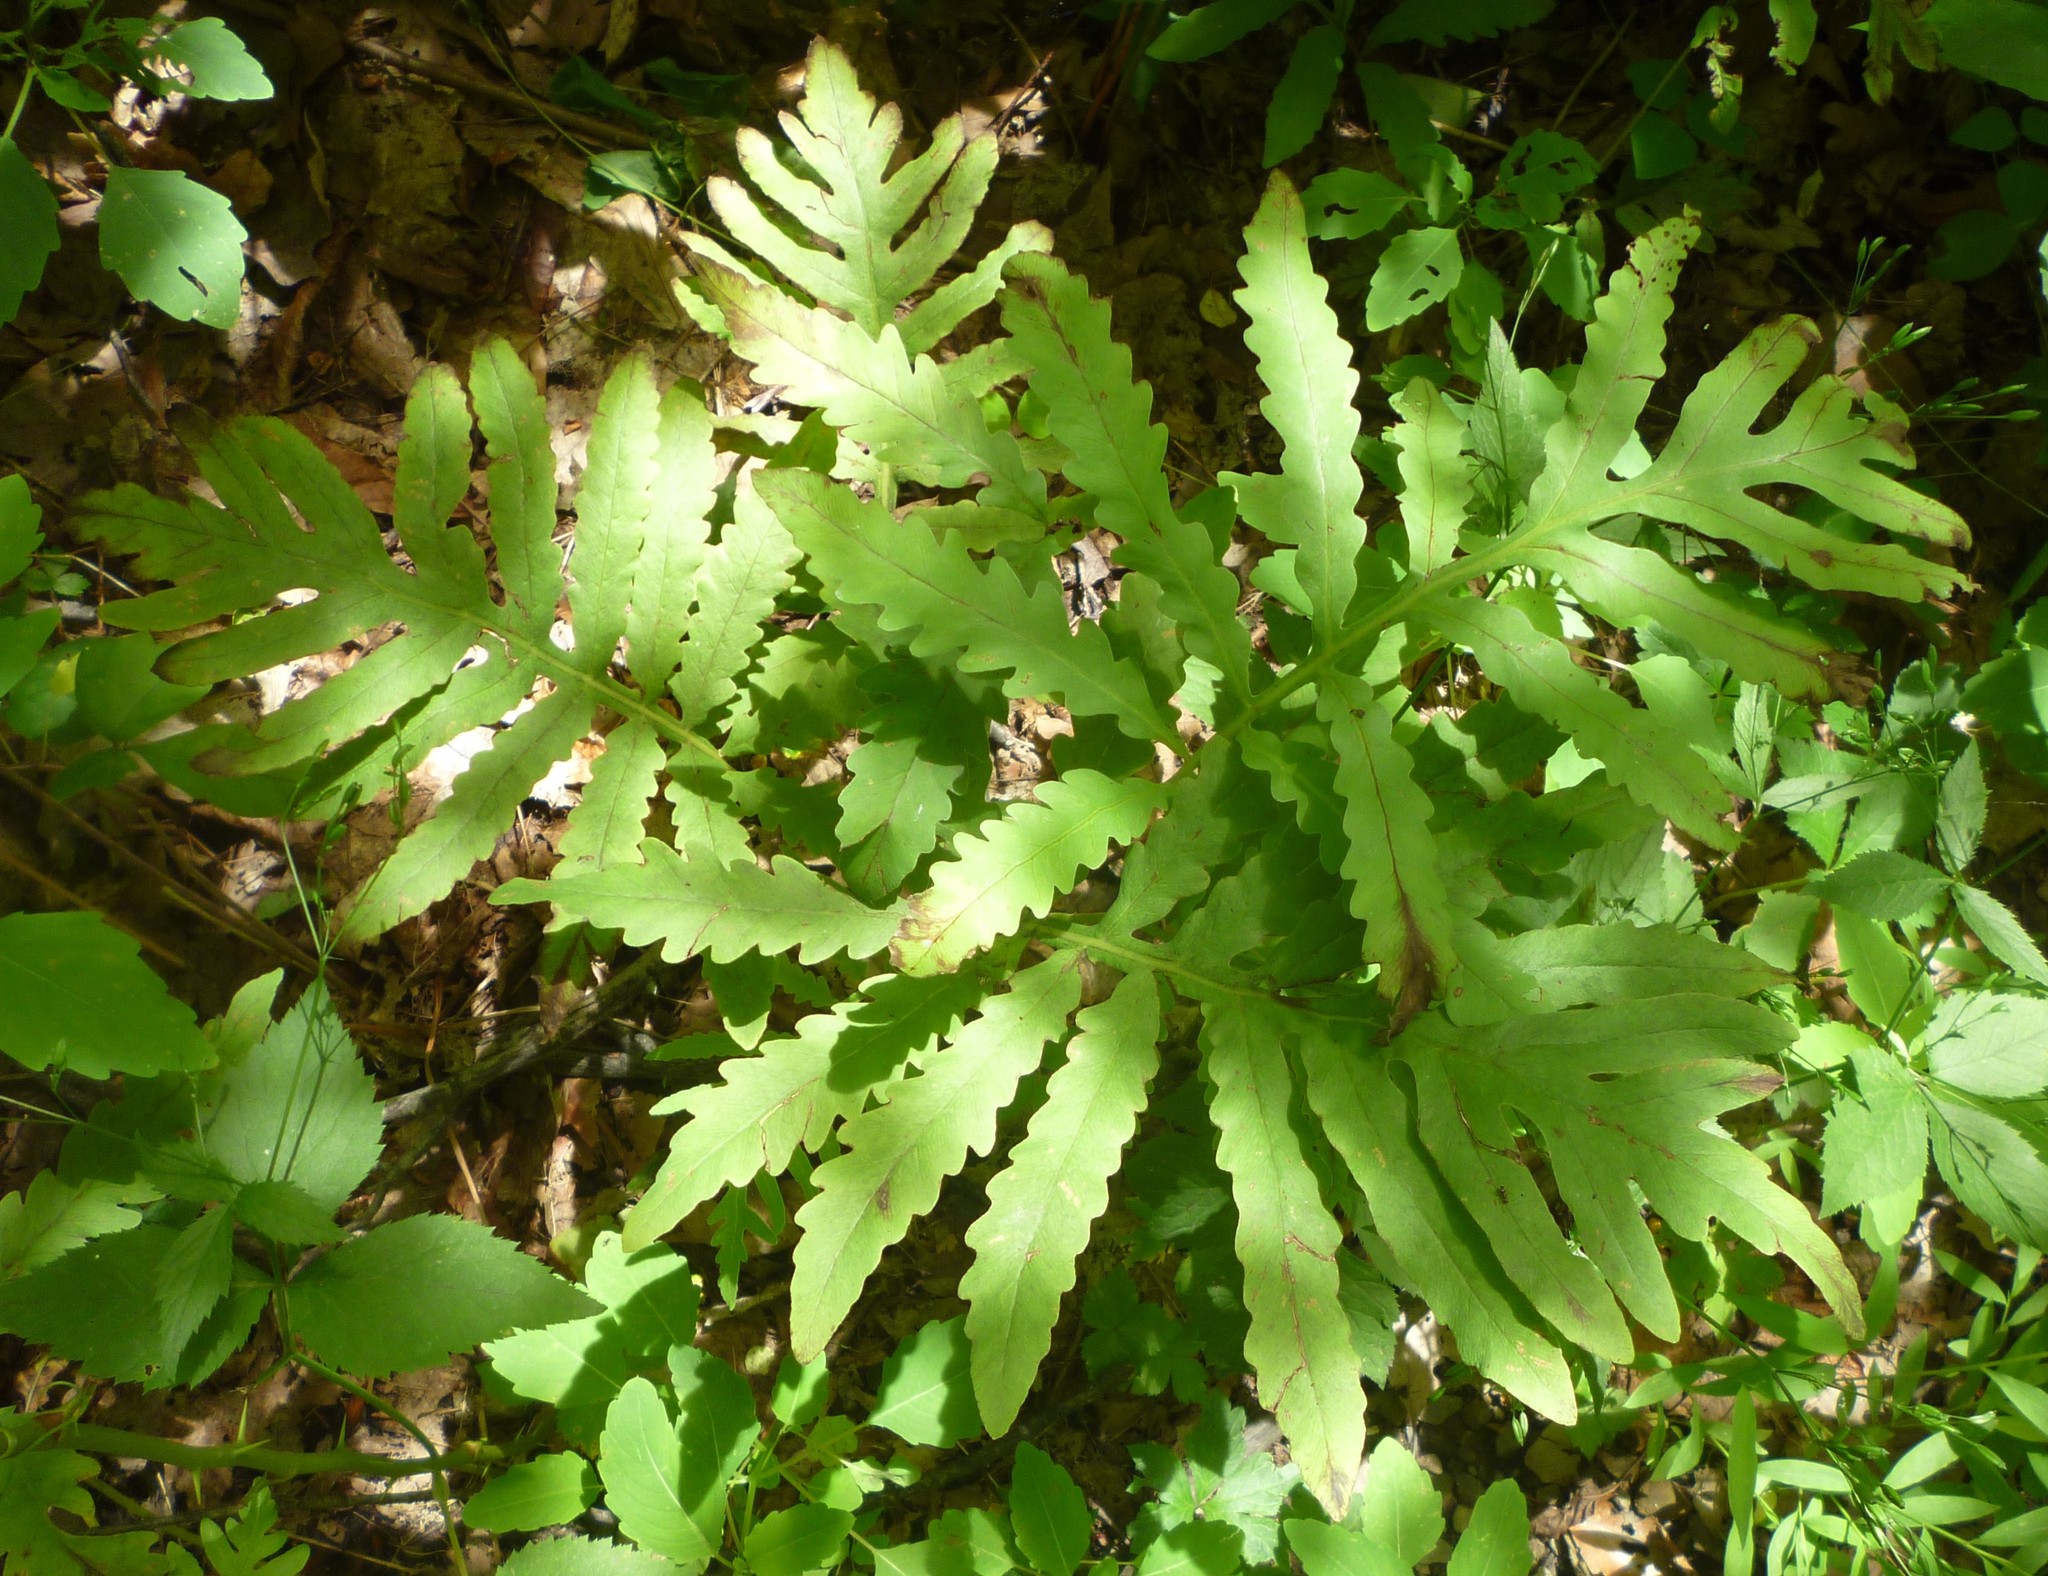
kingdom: Plantae
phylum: Tracheophyta
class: Polypodiopsida
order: Polypodiales
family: Onocleaceae
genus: Onoclea
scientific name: Onoclea sensibilis
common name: Sensitive fern
